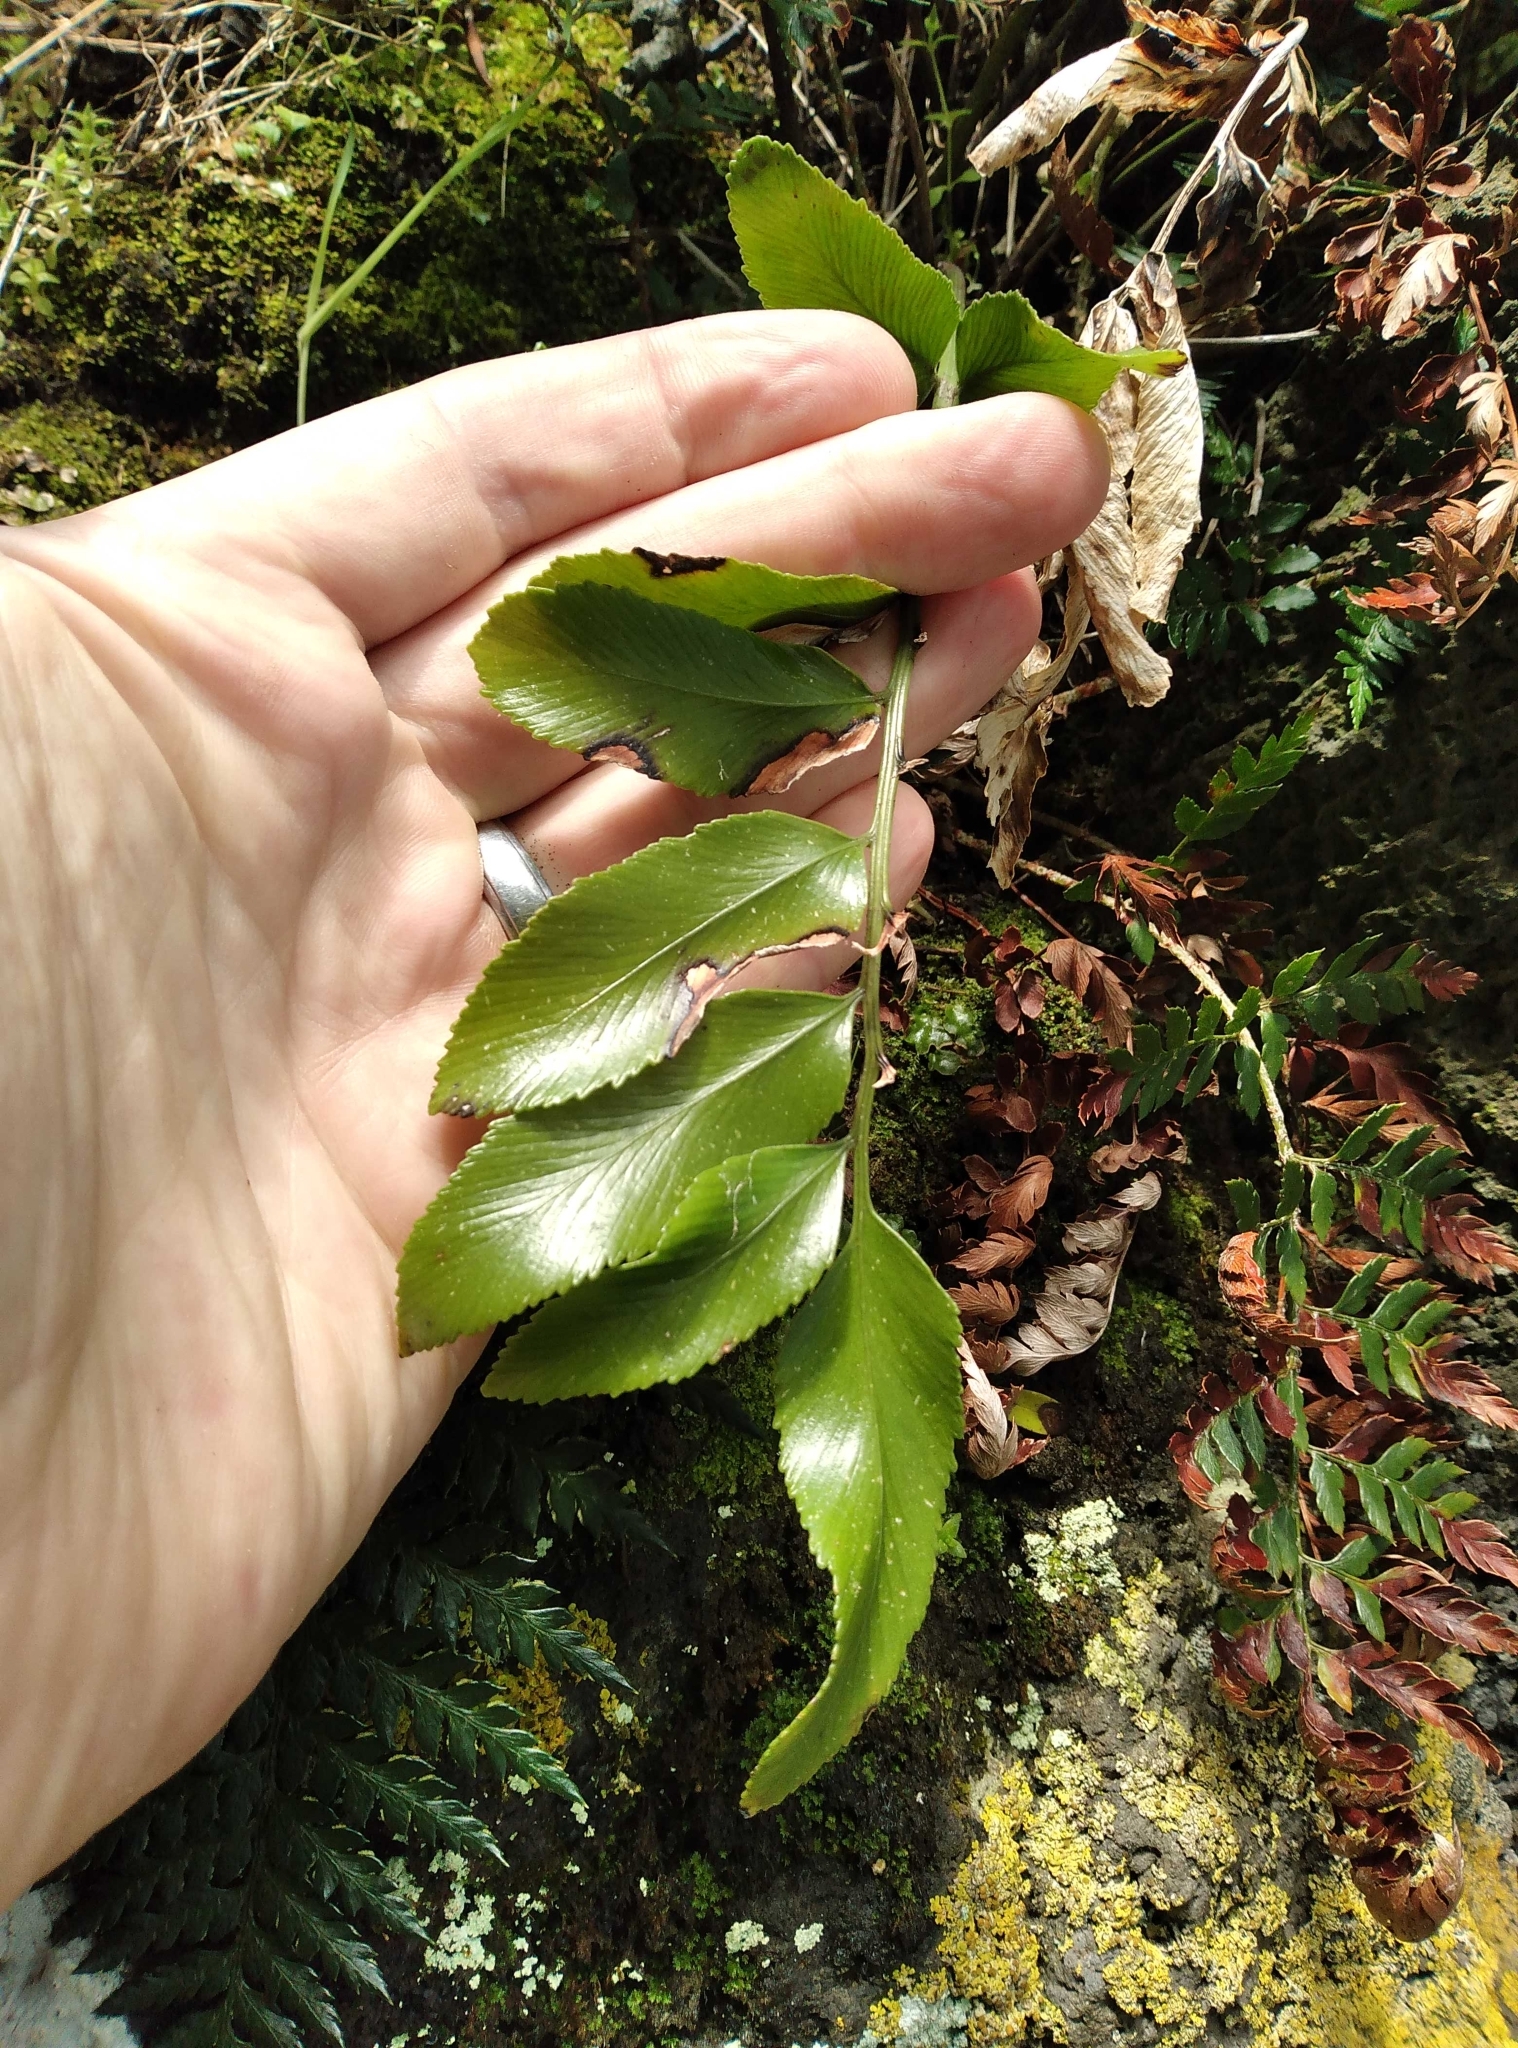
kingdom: Plantae
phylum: Tracheophyta
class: Polypodiopsida
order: Polypodiales
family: Aspleniaceae
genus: Asplenium
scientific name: Asplenium oblongifolium
